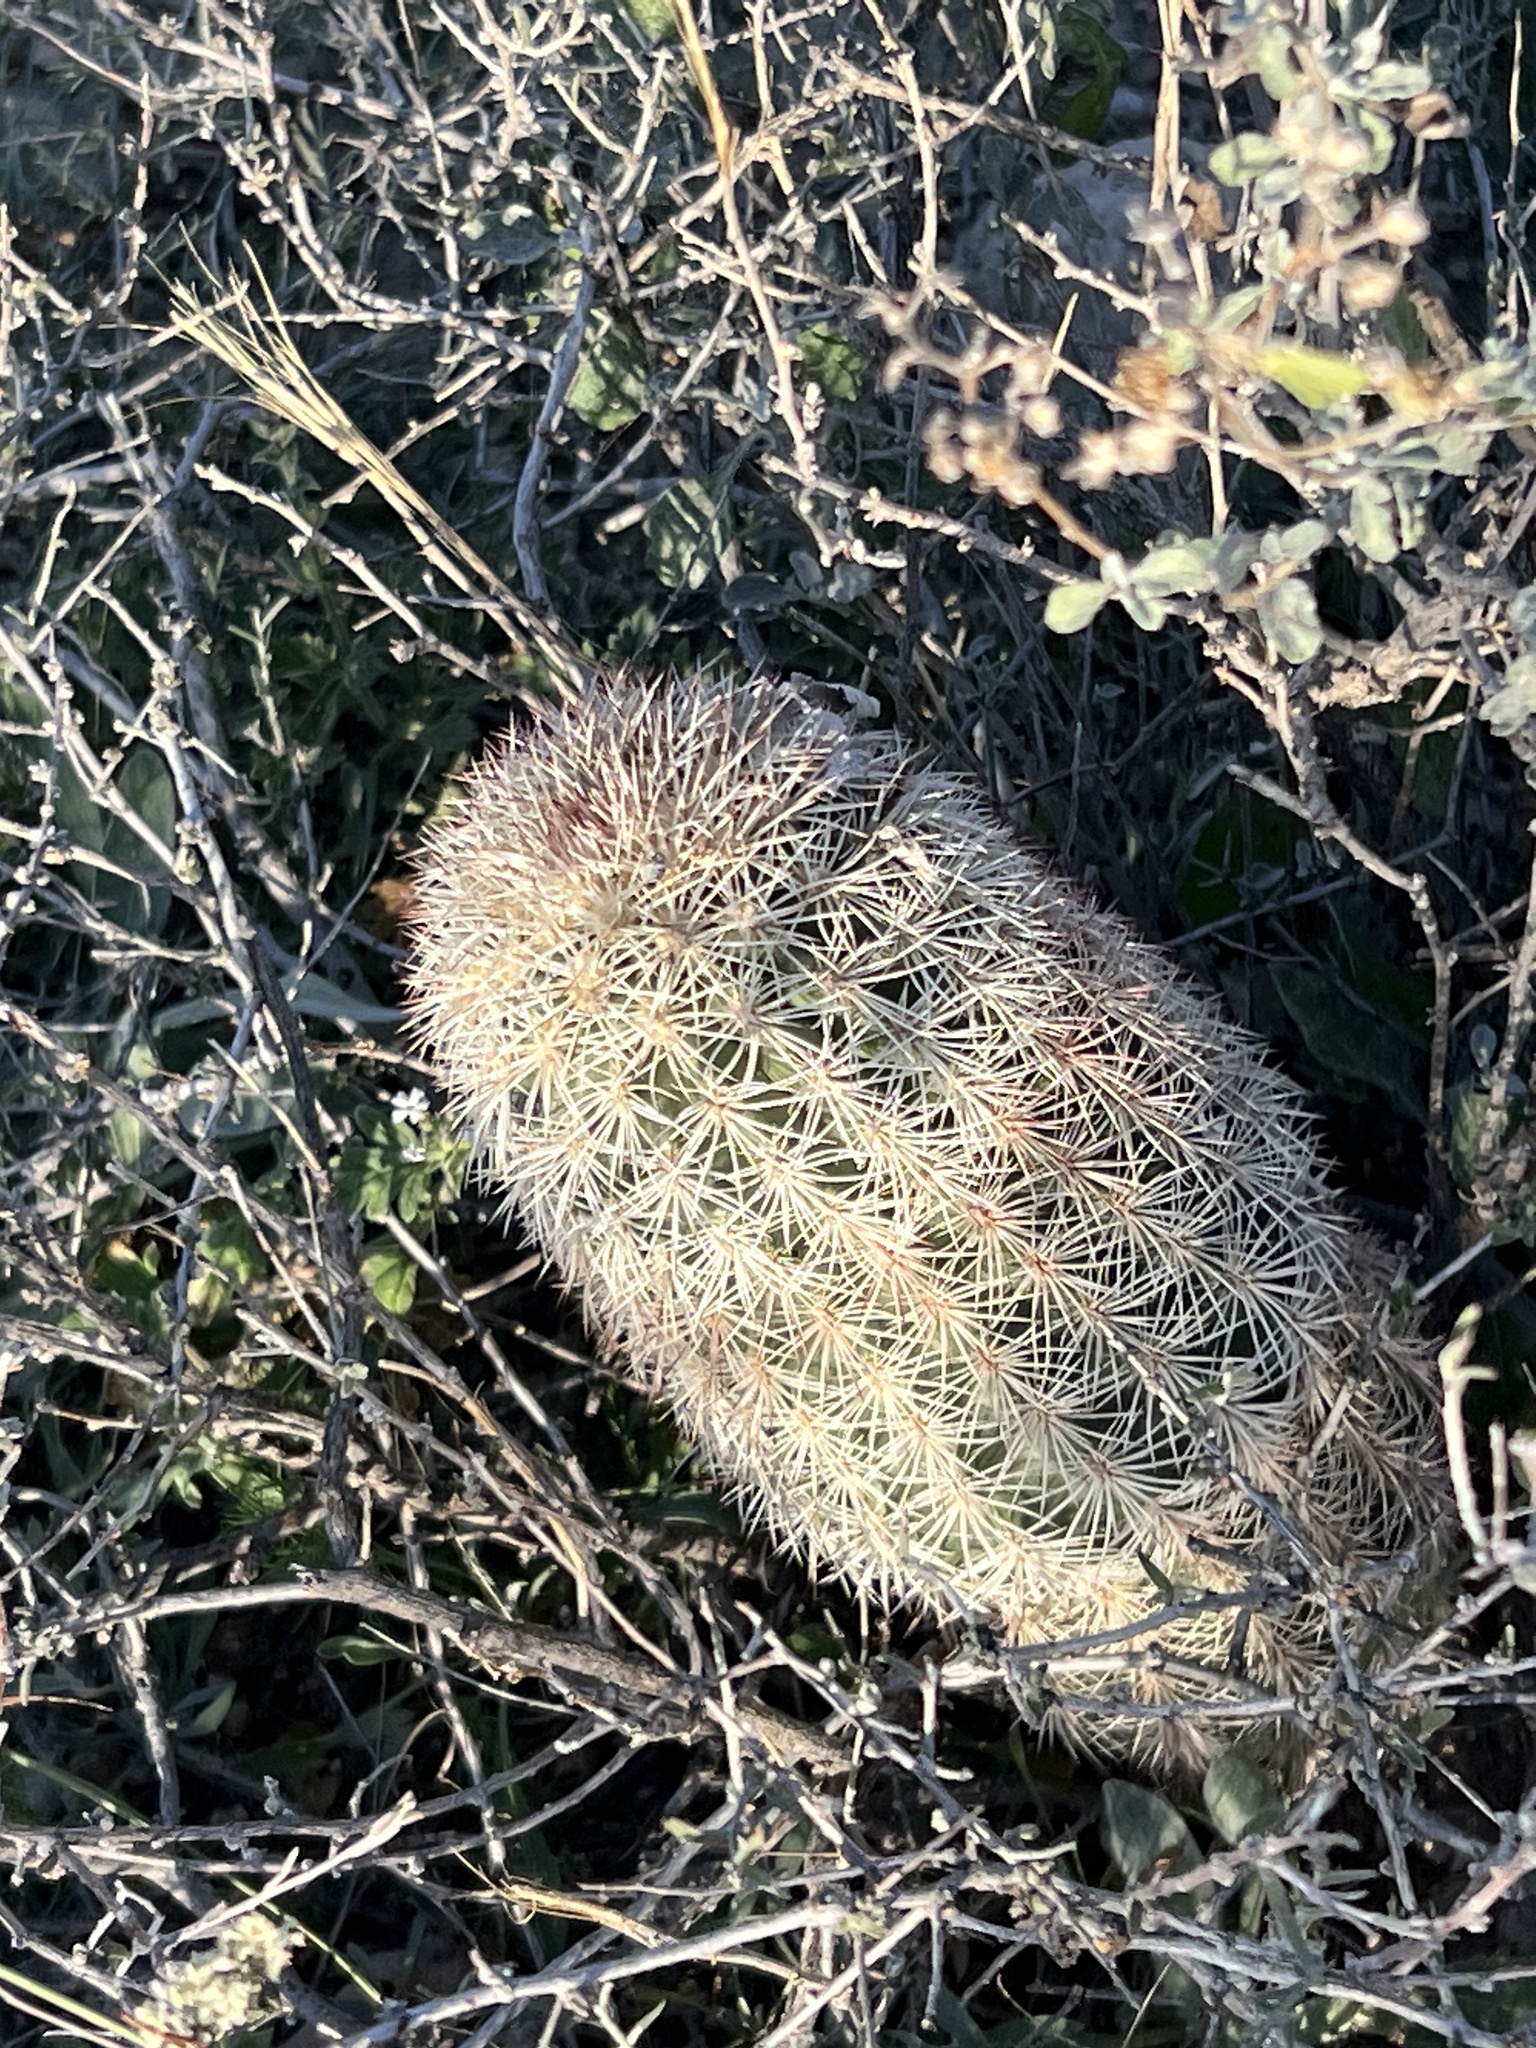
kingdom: Plantae
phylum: Tracheophyta
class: Magnoliopsida
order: Caryophyllales
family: Cactaceae
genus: Echinocereus
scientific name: Echinocereus dasyacanthus
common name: Spiny hedgehog cactus
